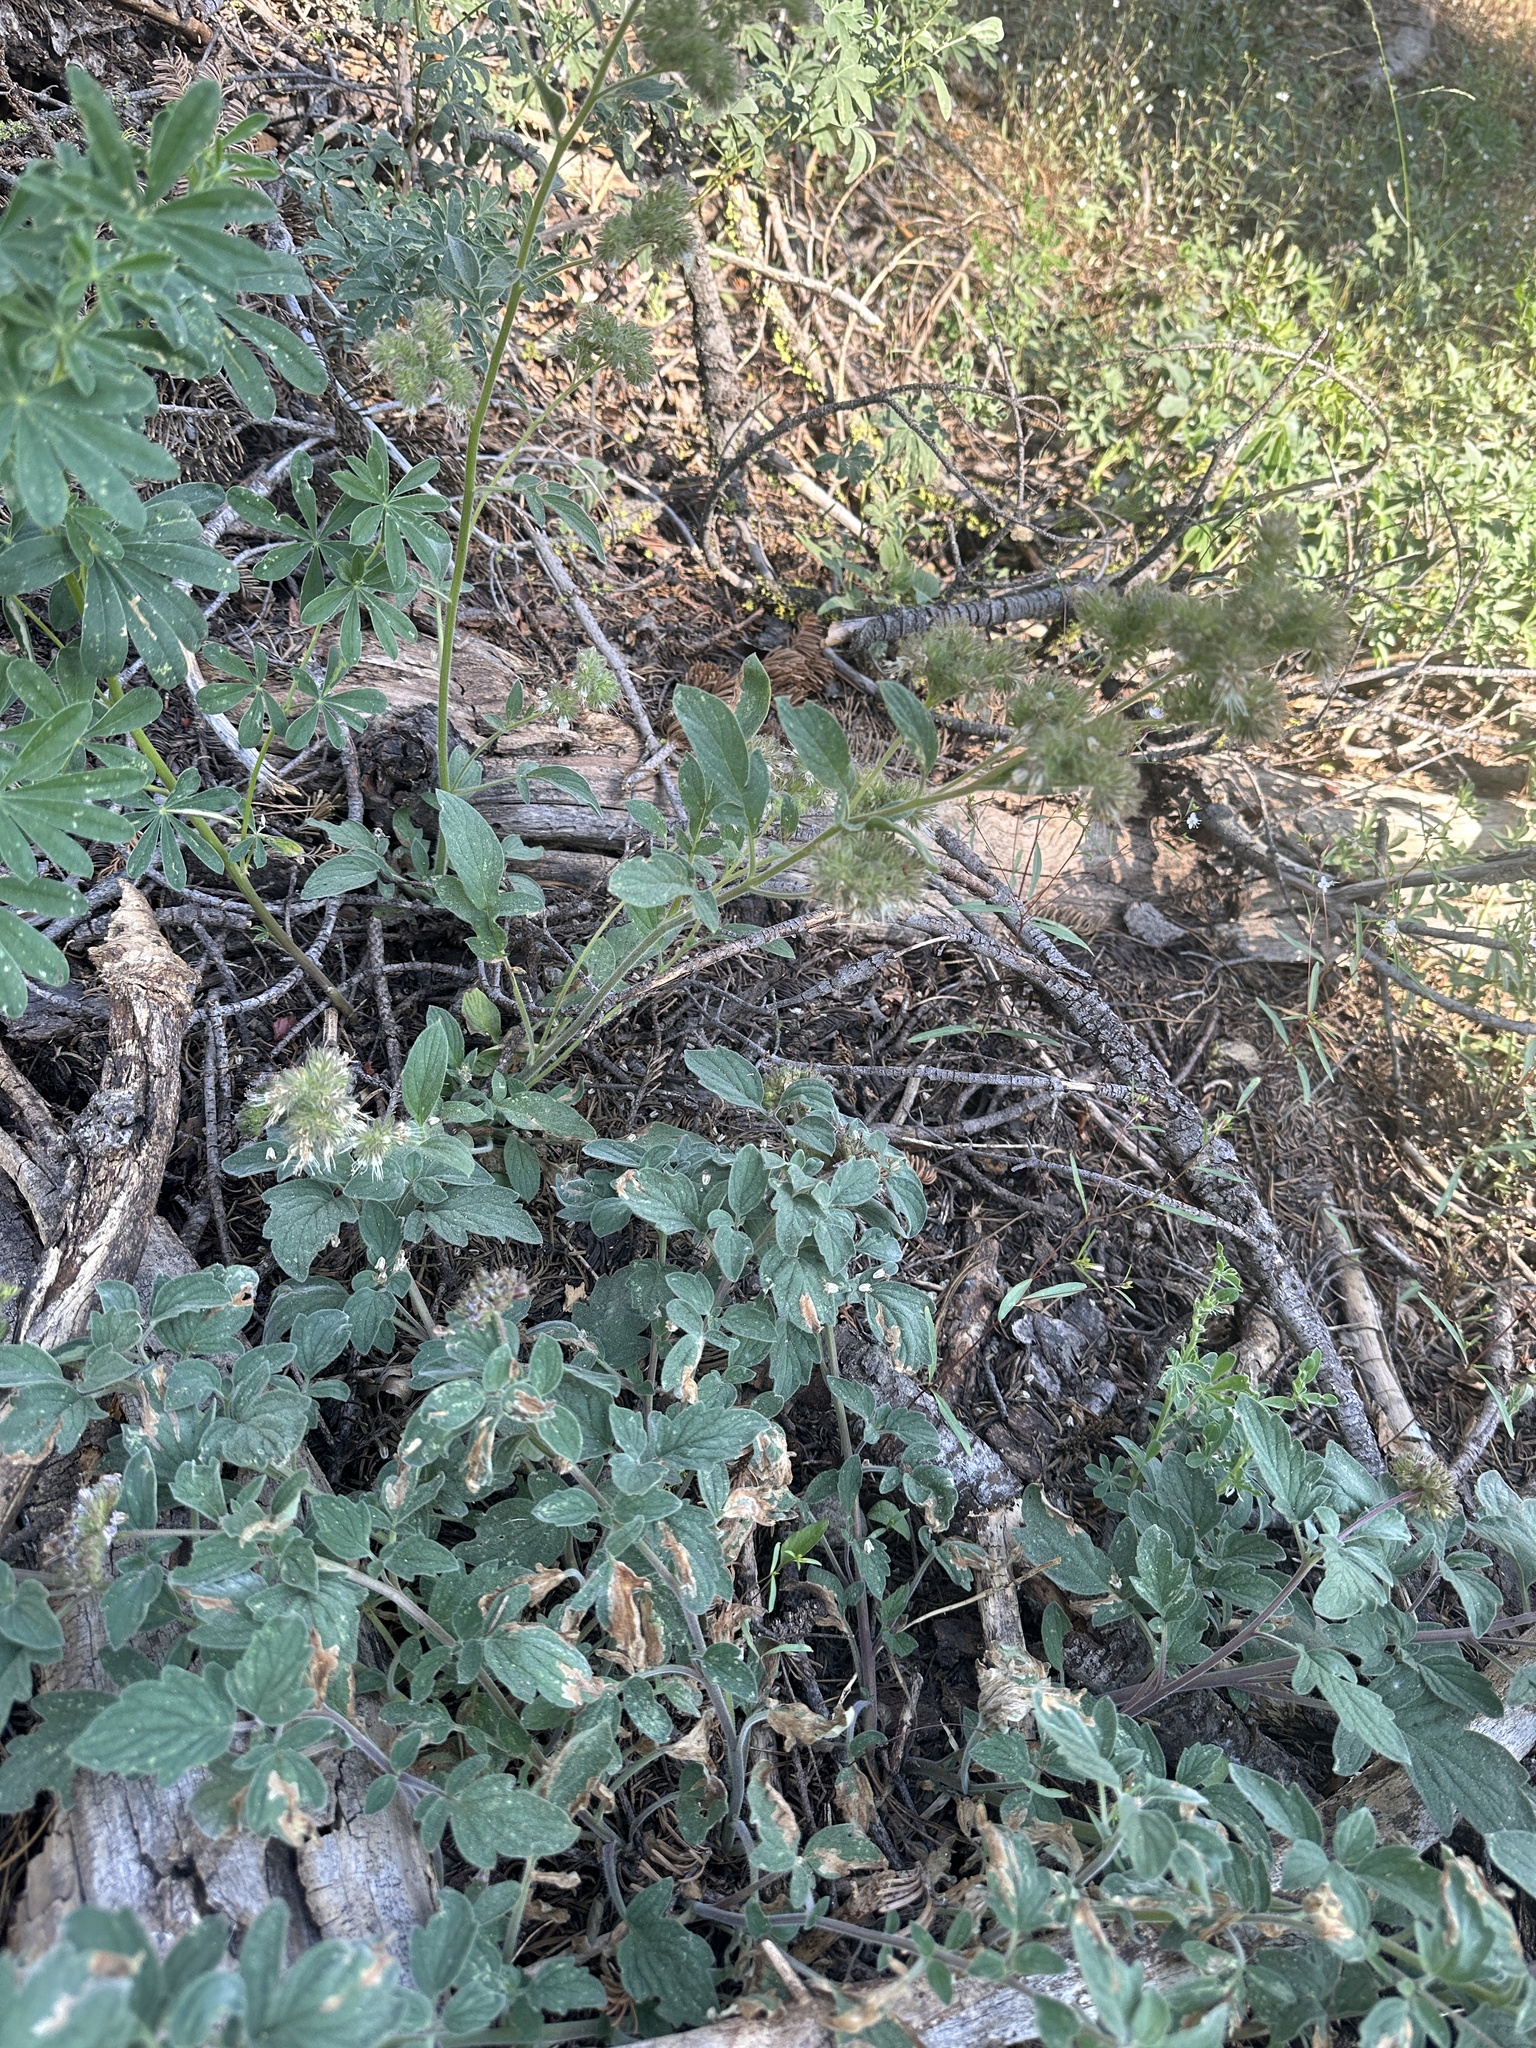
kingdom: Plantae
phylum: Tracheophyta
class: Magnoliopsida
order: Boraginales
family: Hydrophyllaceae
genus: Phacelia
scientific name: Phacelia hydrophylloides
